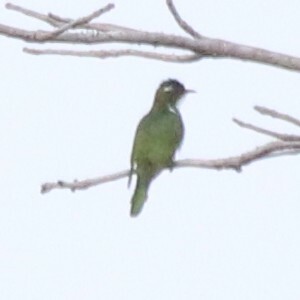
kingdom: Animalia
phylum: Chordata
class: Aves
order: Cuculiformes
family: Cuculidae
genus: Chrysococcyx
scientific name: Chrysococcyx klaas
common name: Klaas's cuckoo
